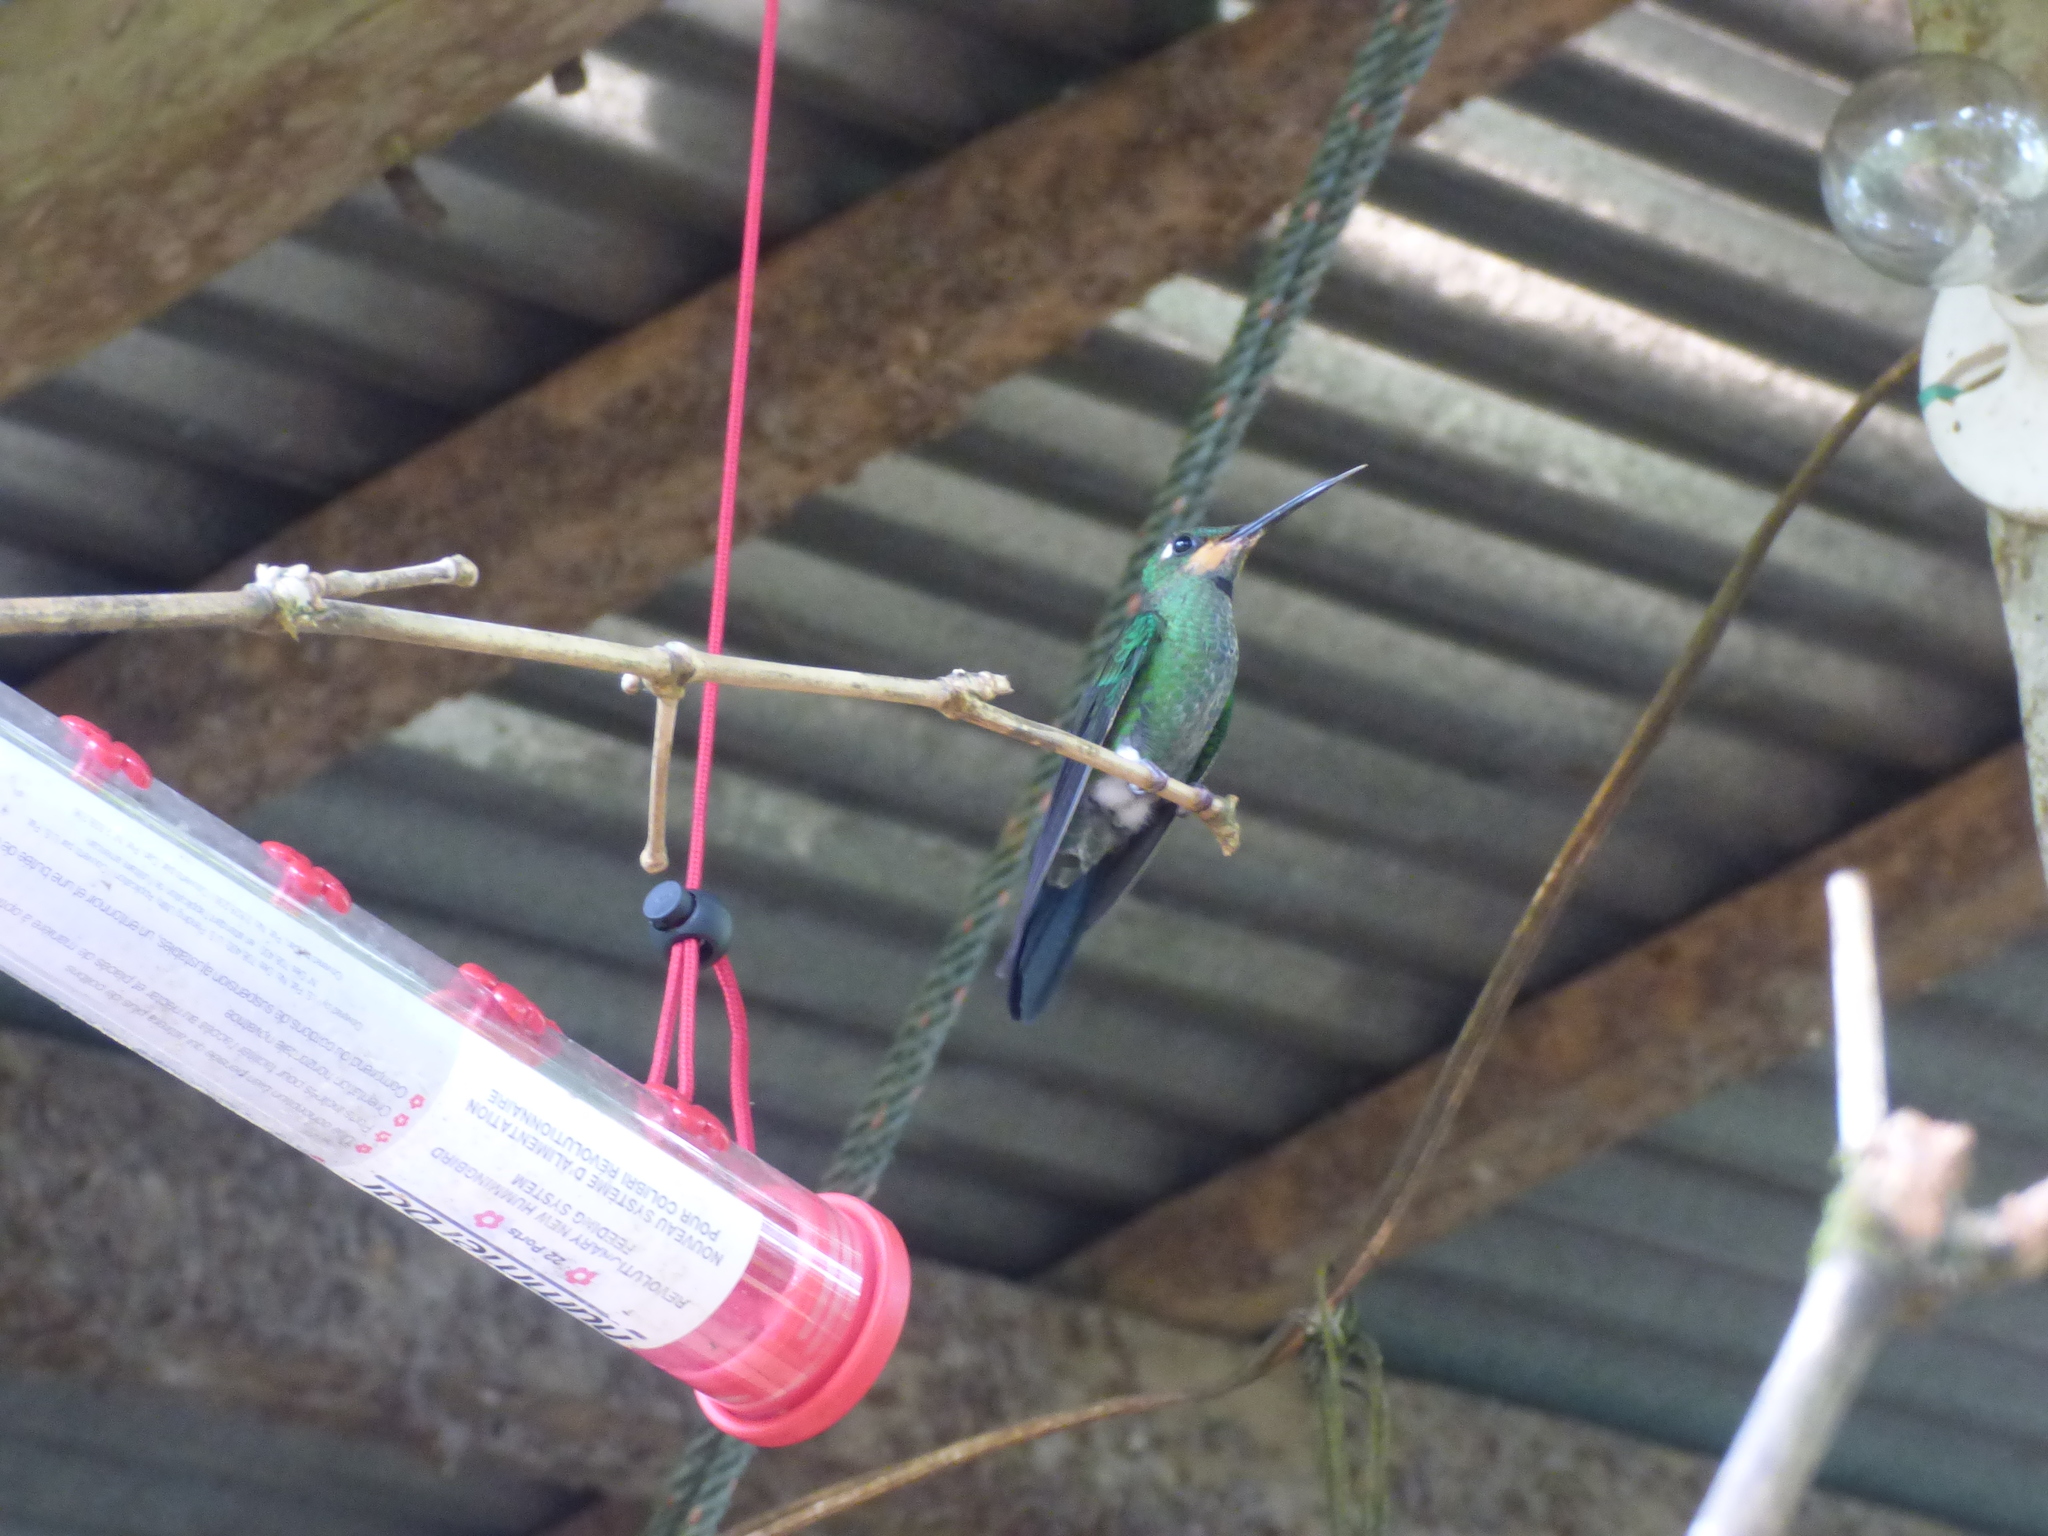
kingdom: Animalia
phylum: Chordata
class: Aves
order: Apodiformes
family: Trochilidae
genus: Heliodoxa
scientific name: Heliodoxa jacula
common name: Green-crowned brilliant
